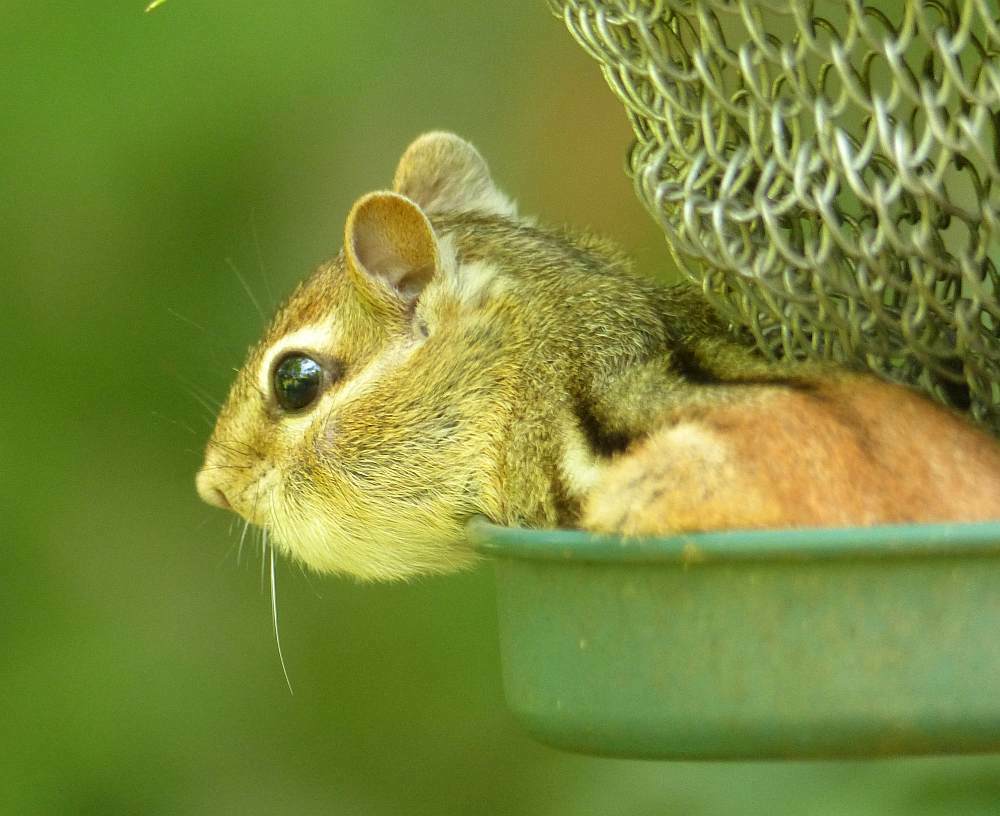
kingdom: Animalia
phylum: Chordata
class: Mammalia
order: Rodentia
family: Sciuridae
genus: Tamias
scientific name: Tamias striatus
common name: Eastern chipmunk
